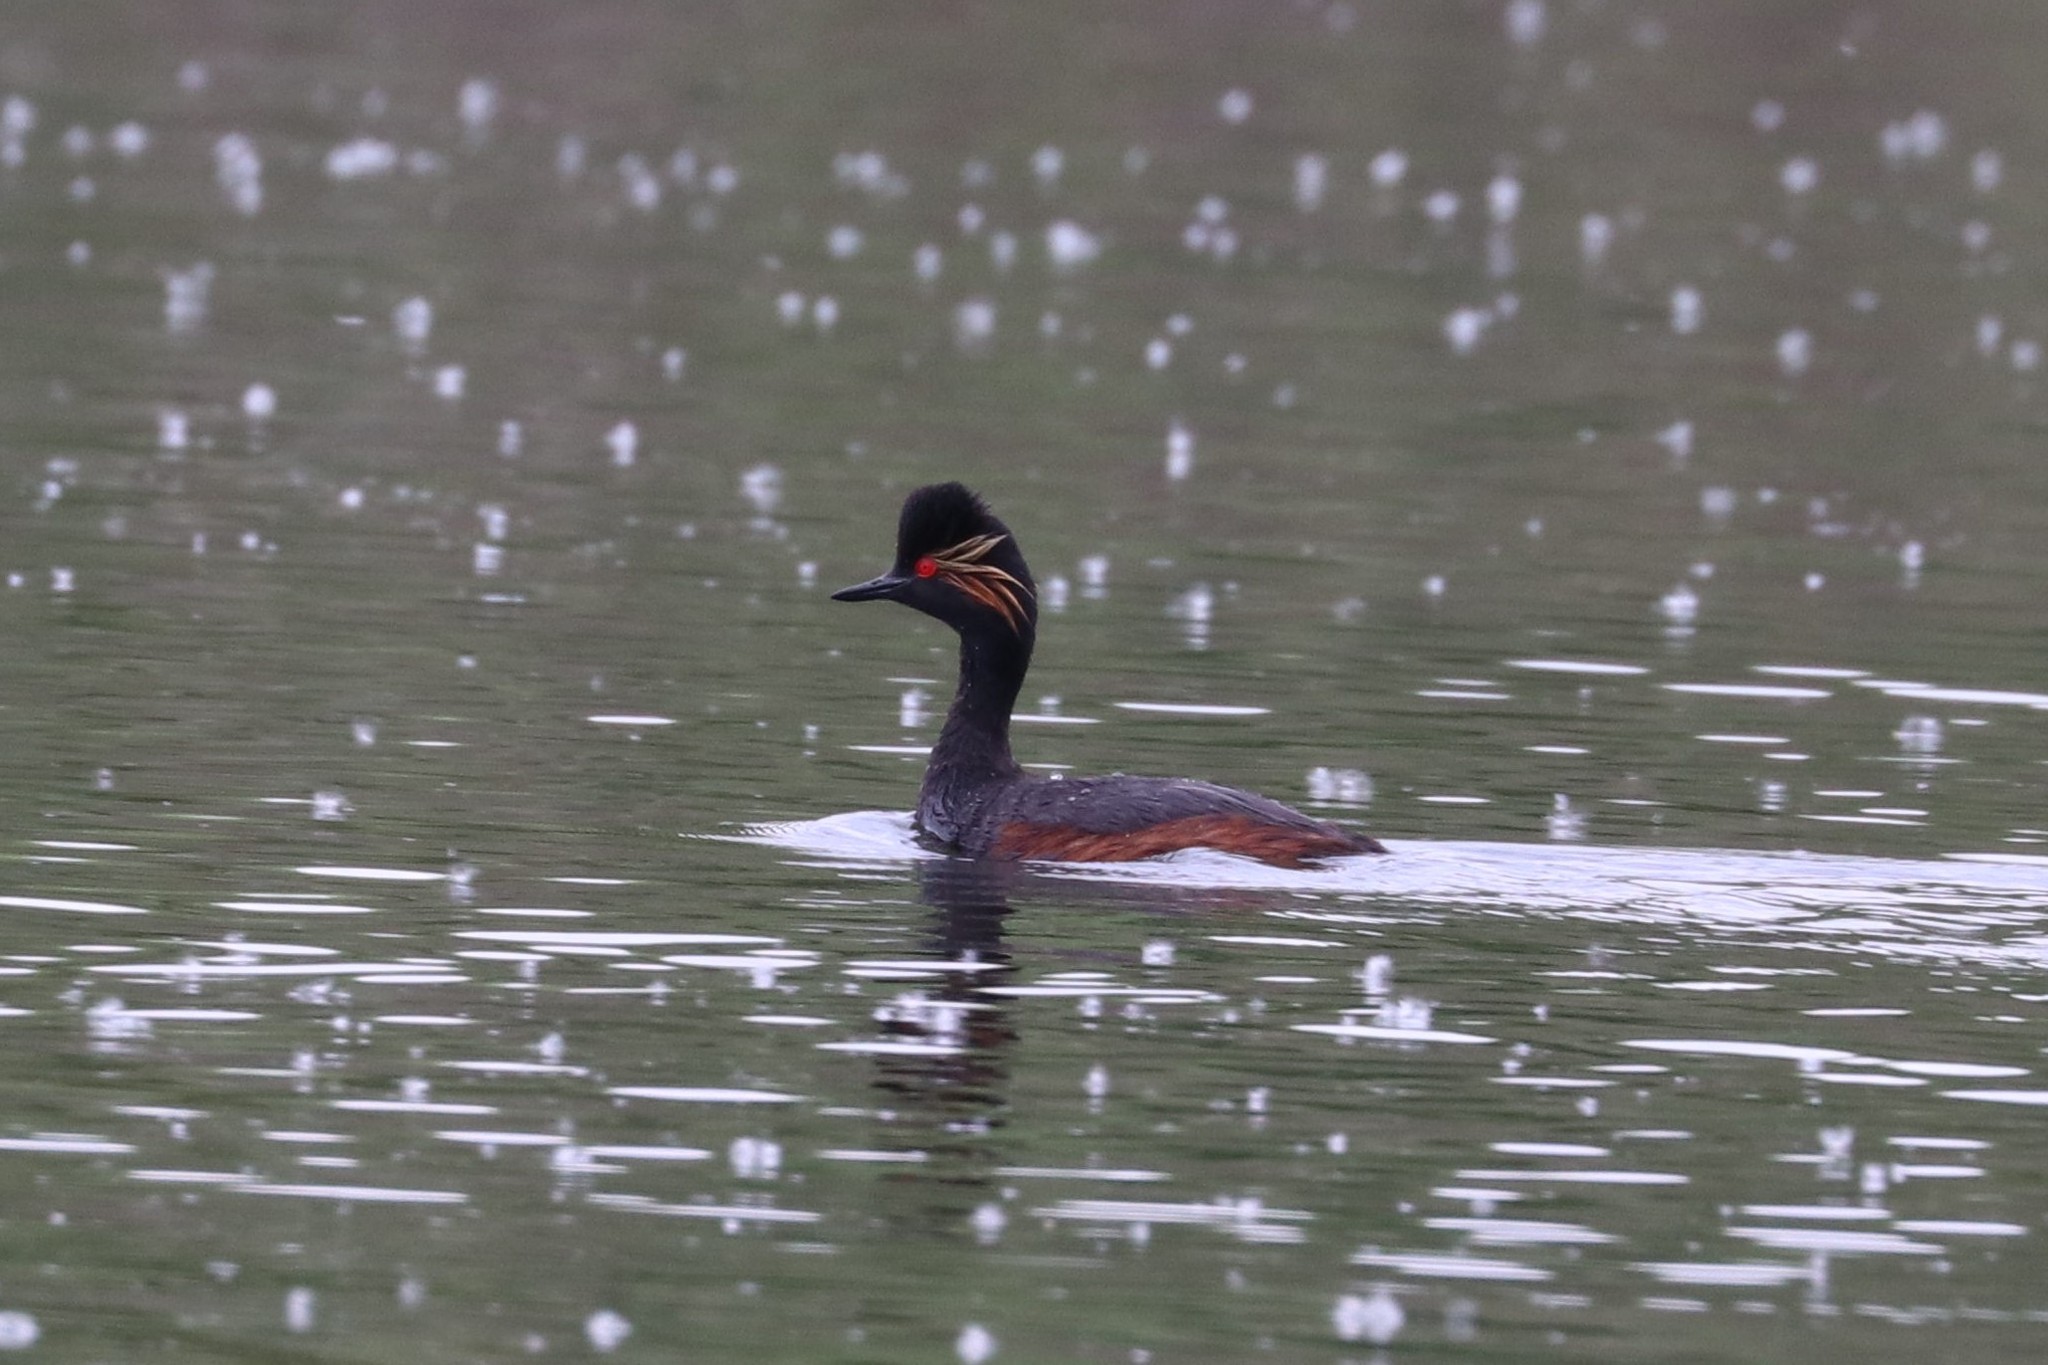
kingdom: Animalia
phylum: Chordata
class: Aves
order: Podicipediformes
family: Podicipedidae
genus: Podiceps
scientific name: Podiceps nigricollis
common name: Black-necked grebe
